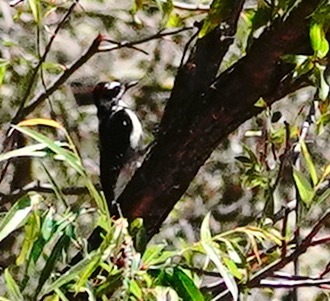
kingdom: Animalia
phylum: Chordata
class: Aves
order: Piciformes
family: Picidae
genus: Leuconotopicus
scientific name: Leuconotopicus villosus
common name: Hairy woodpecker
